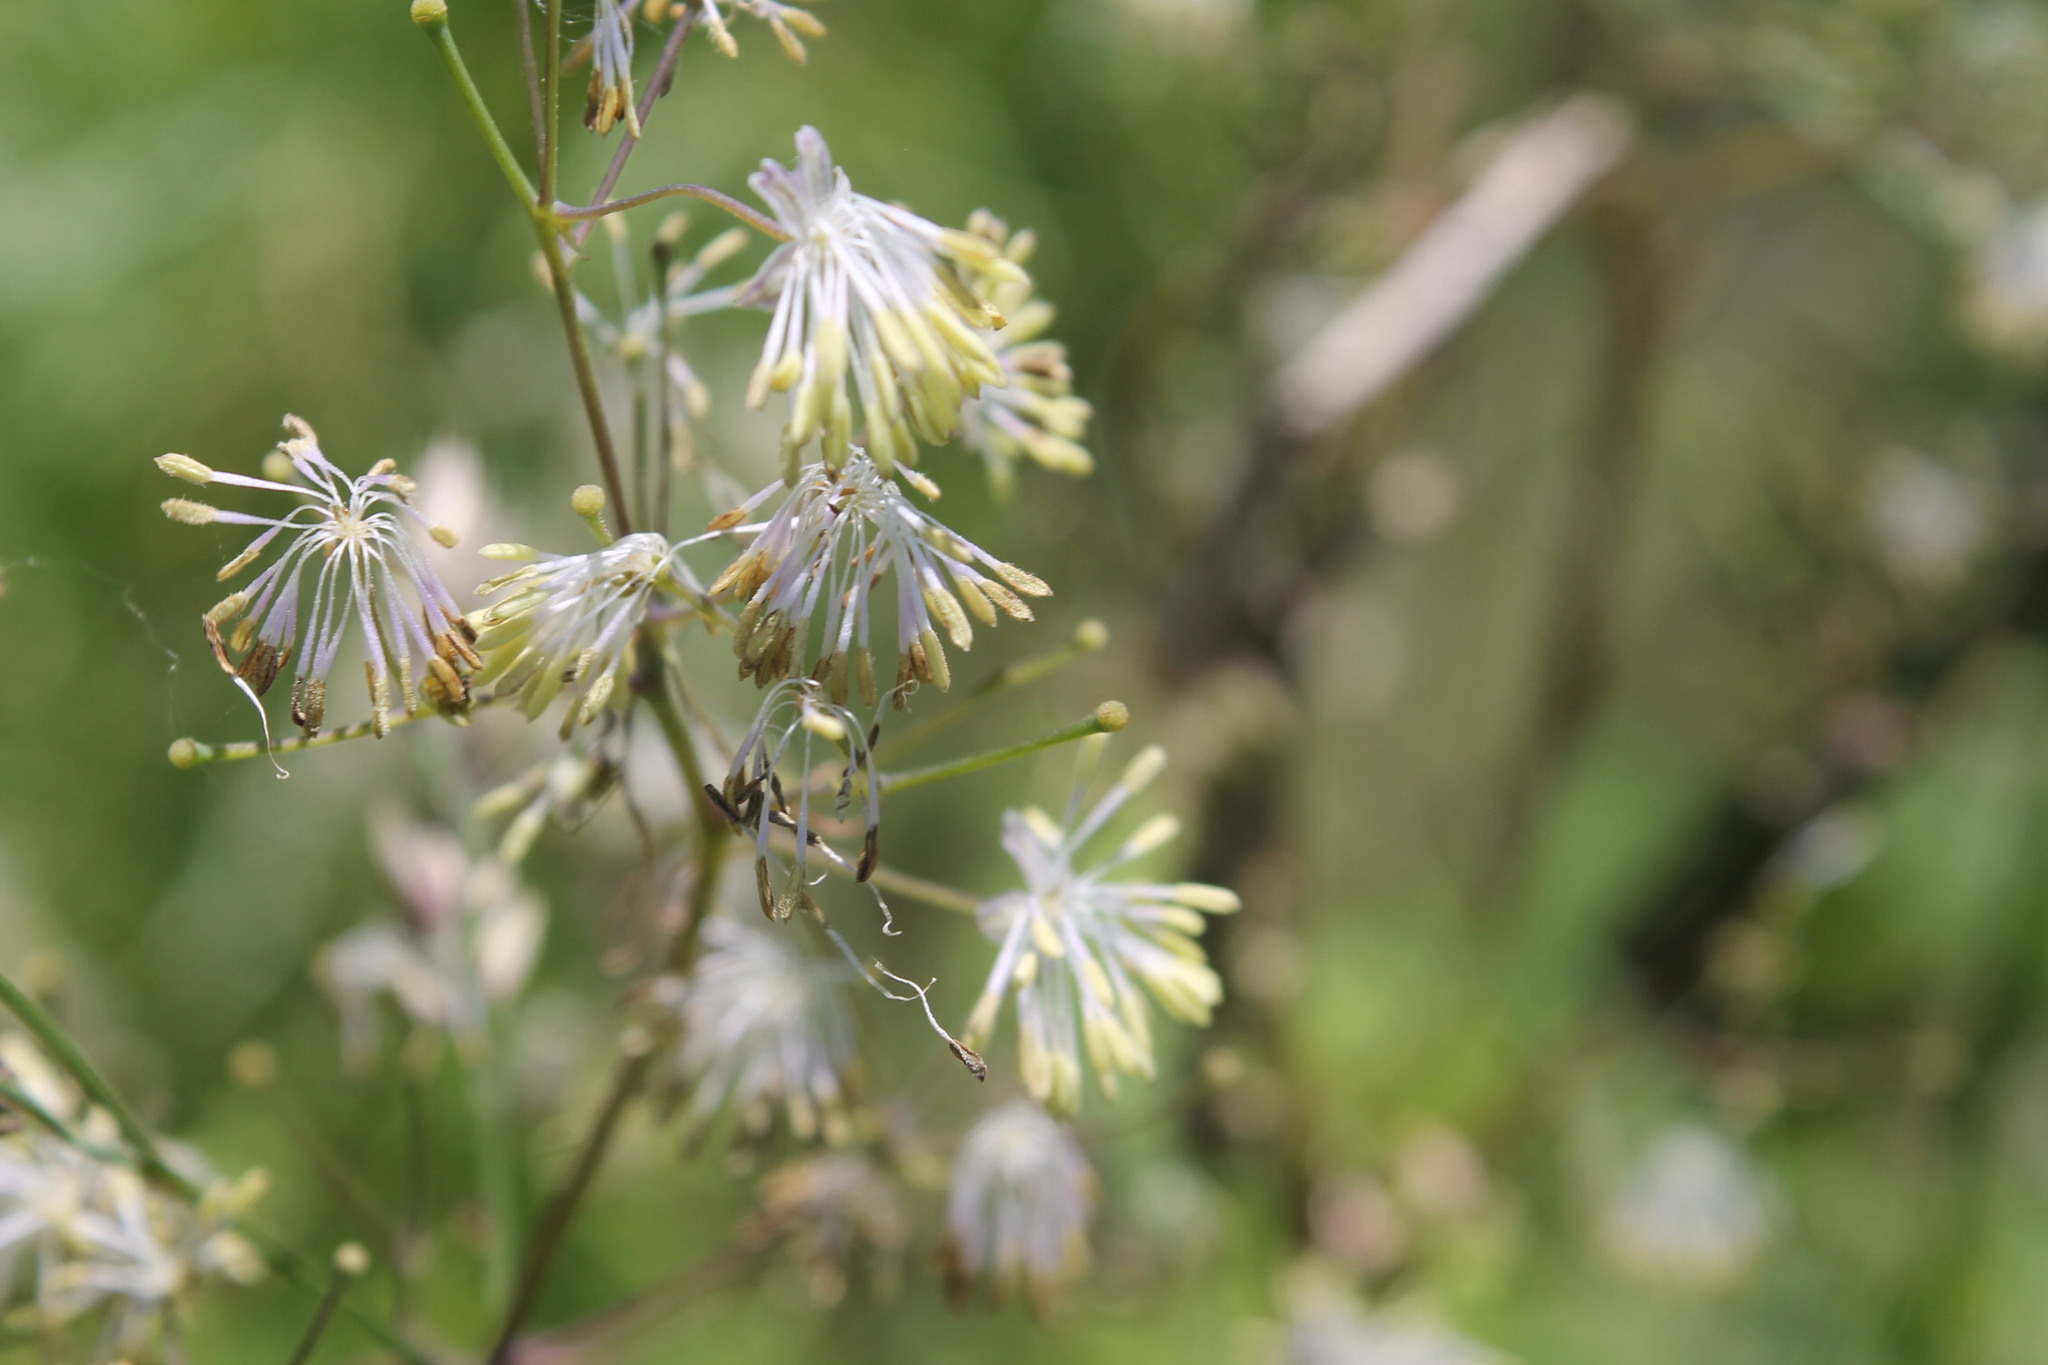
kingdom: Plantae
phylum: Tracheophyta
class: Magnoliopsida
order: Ranunculales
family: Ranunculaceae
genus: Thalictrum
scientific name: Thalictrum pubescens
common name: King-of-the-meadow
